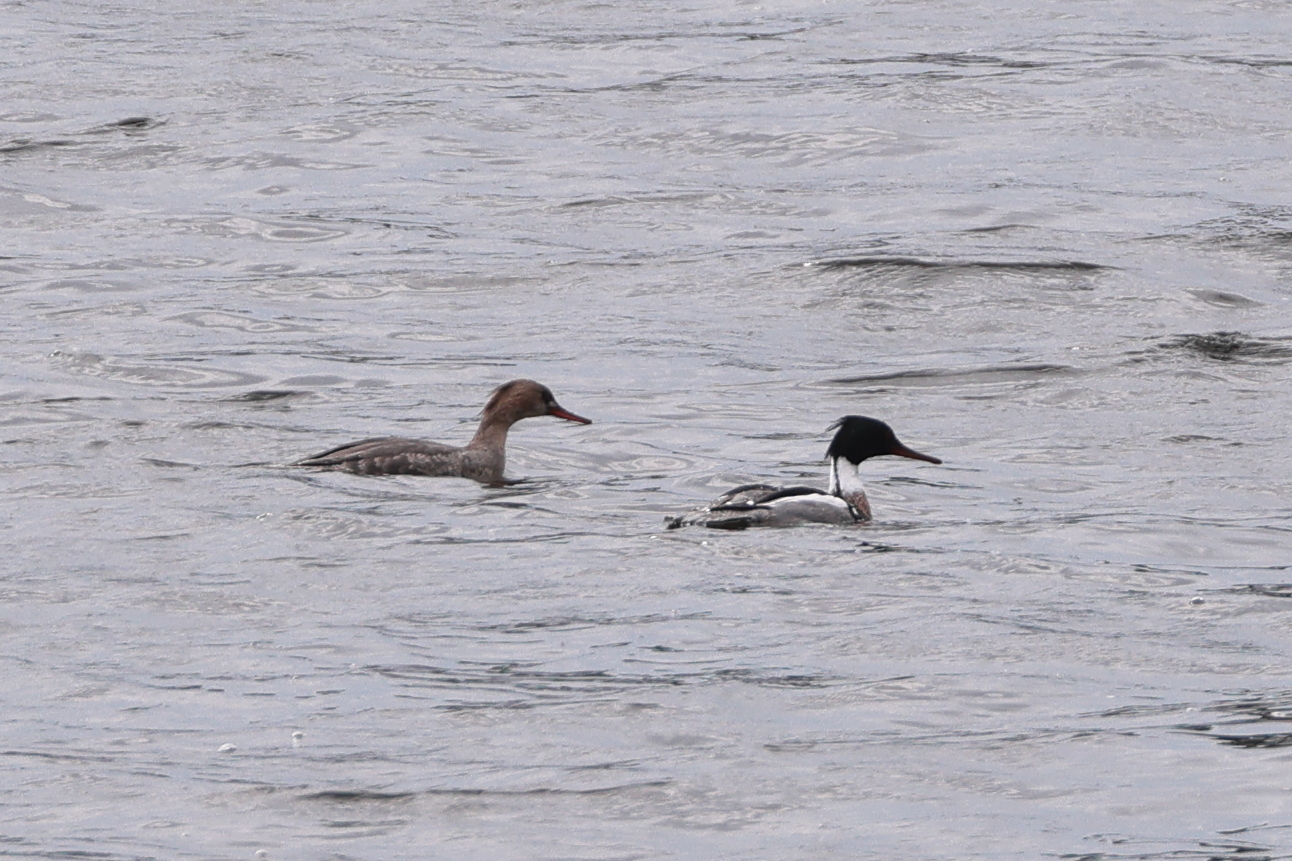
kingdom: Animalia
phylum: Chordata
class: Aves
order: Anseriformes
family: Anatidae
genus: Mergus
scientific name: Mergus serrator
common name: Red-breasted merganser
